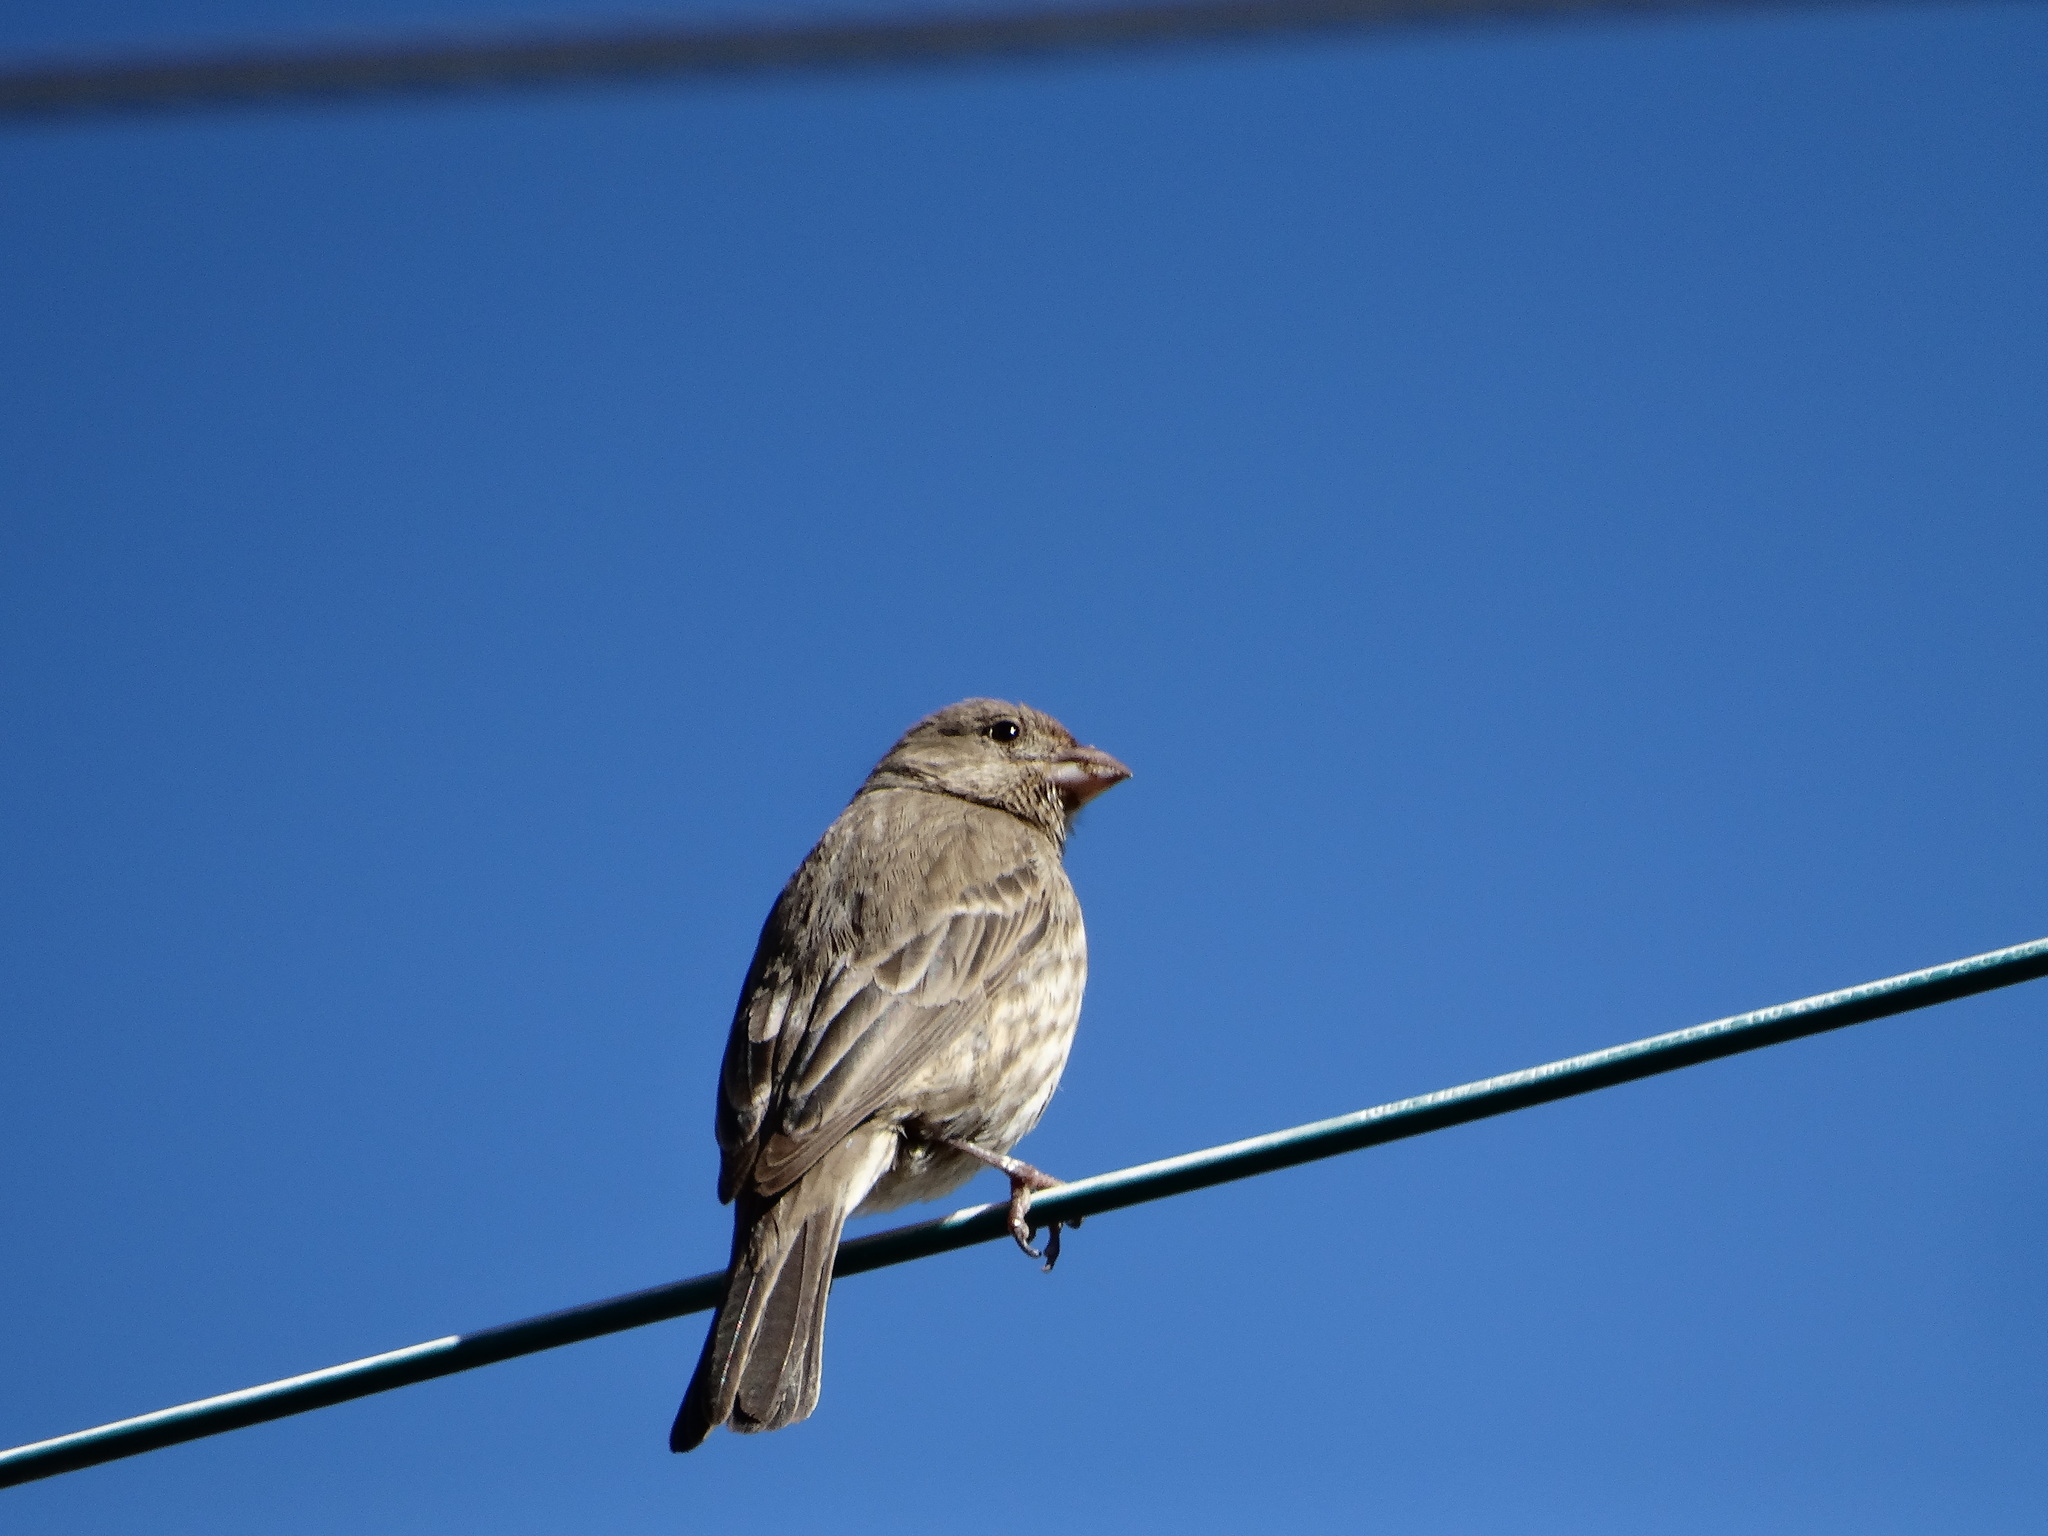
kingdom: Animalia
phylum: Chordata
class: Aves
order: Passeriformes
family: Fringillidae
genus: Haemorhous
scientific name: Haemorhous mexicanus
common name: House finch
